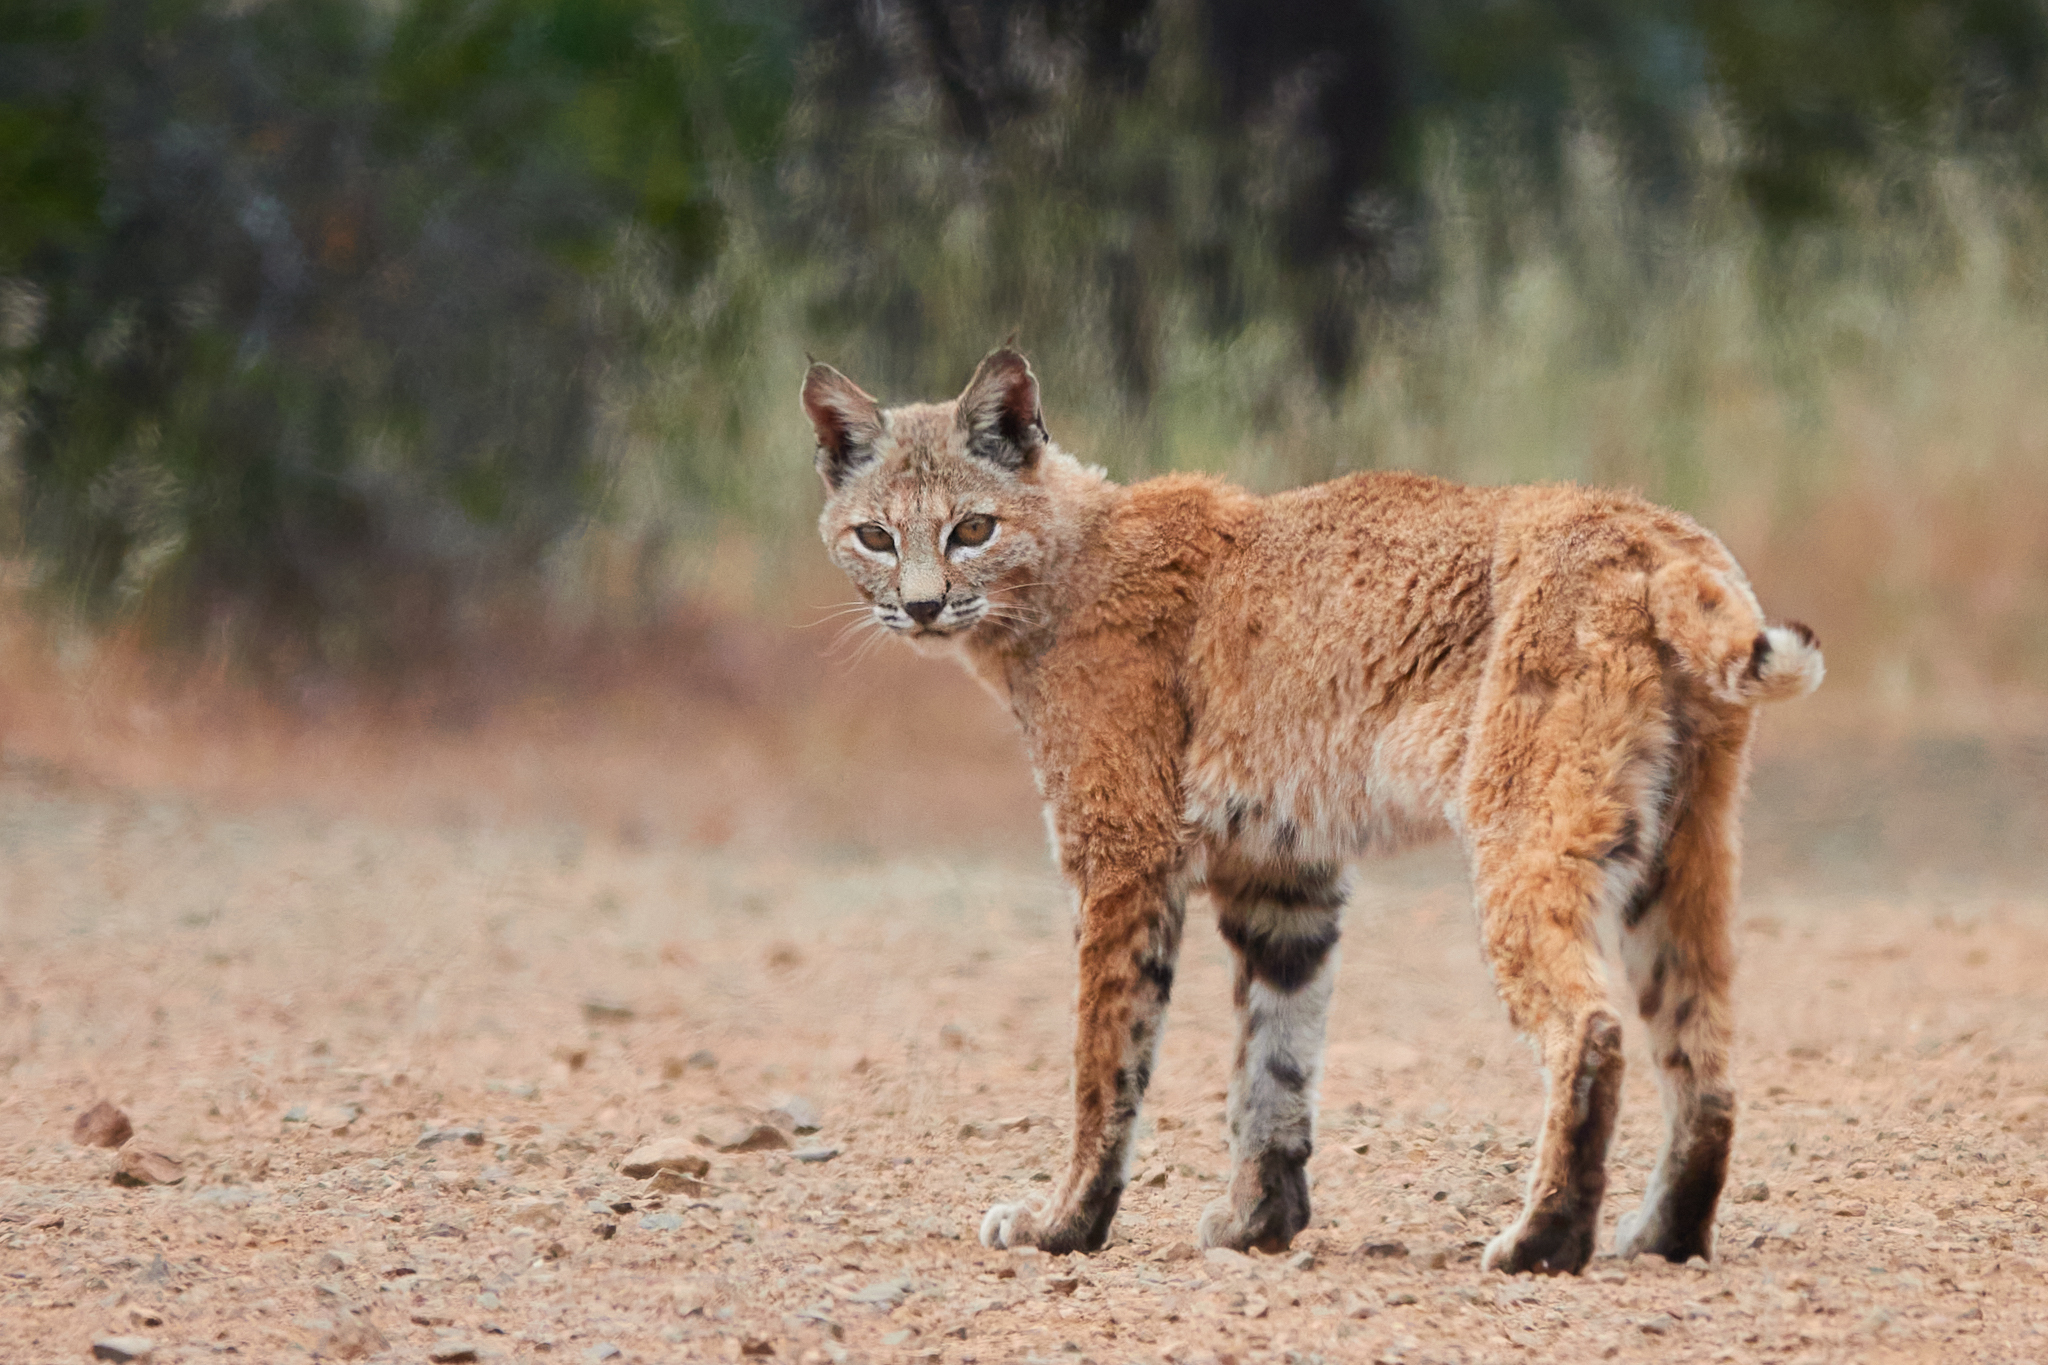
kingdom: Animalia
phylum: Chordata
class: Mammalia
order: Carnivora
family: Felidae
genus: Lynx
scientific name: Lynx rufus
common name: Bobcat
